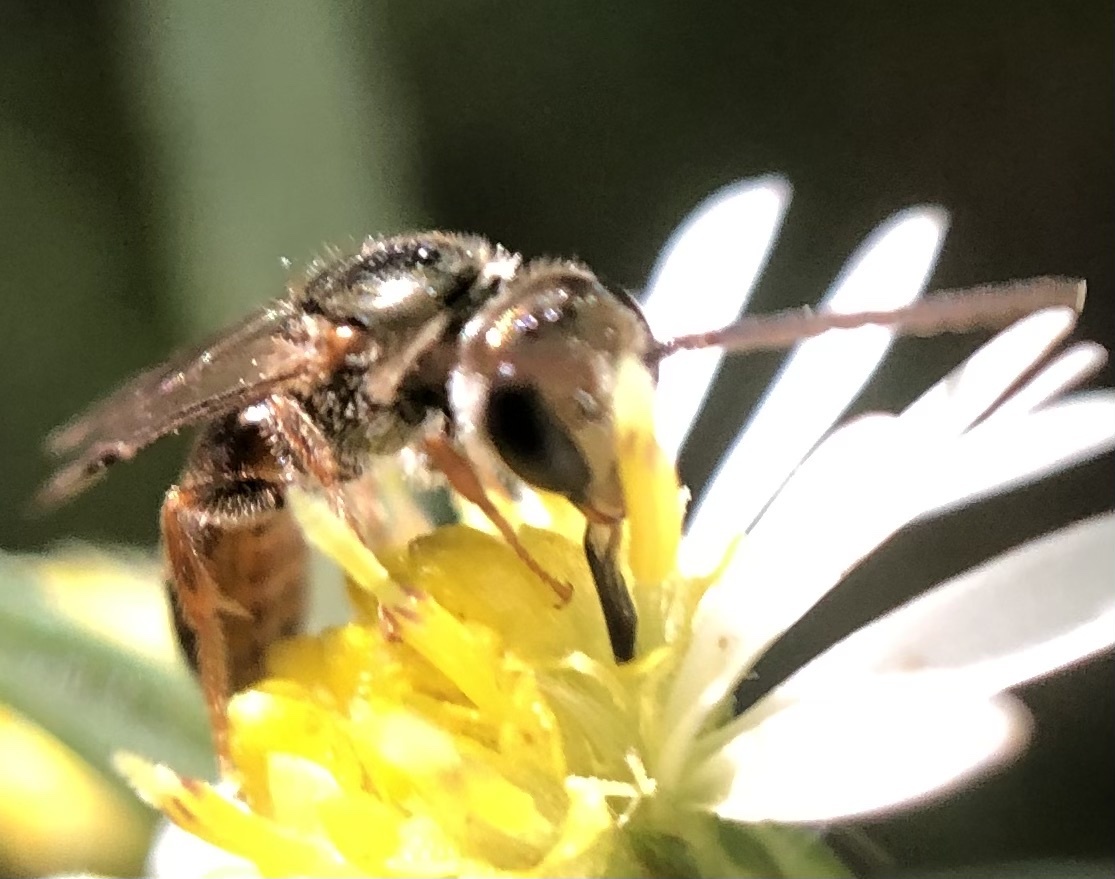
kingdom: Animalia
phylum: Arthropoda
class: Insecta
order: Hymenoptera
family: Halictidae
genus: Lasioglossum
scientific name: Lasioglossum zephyrum
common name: Zephyr sweat bee
